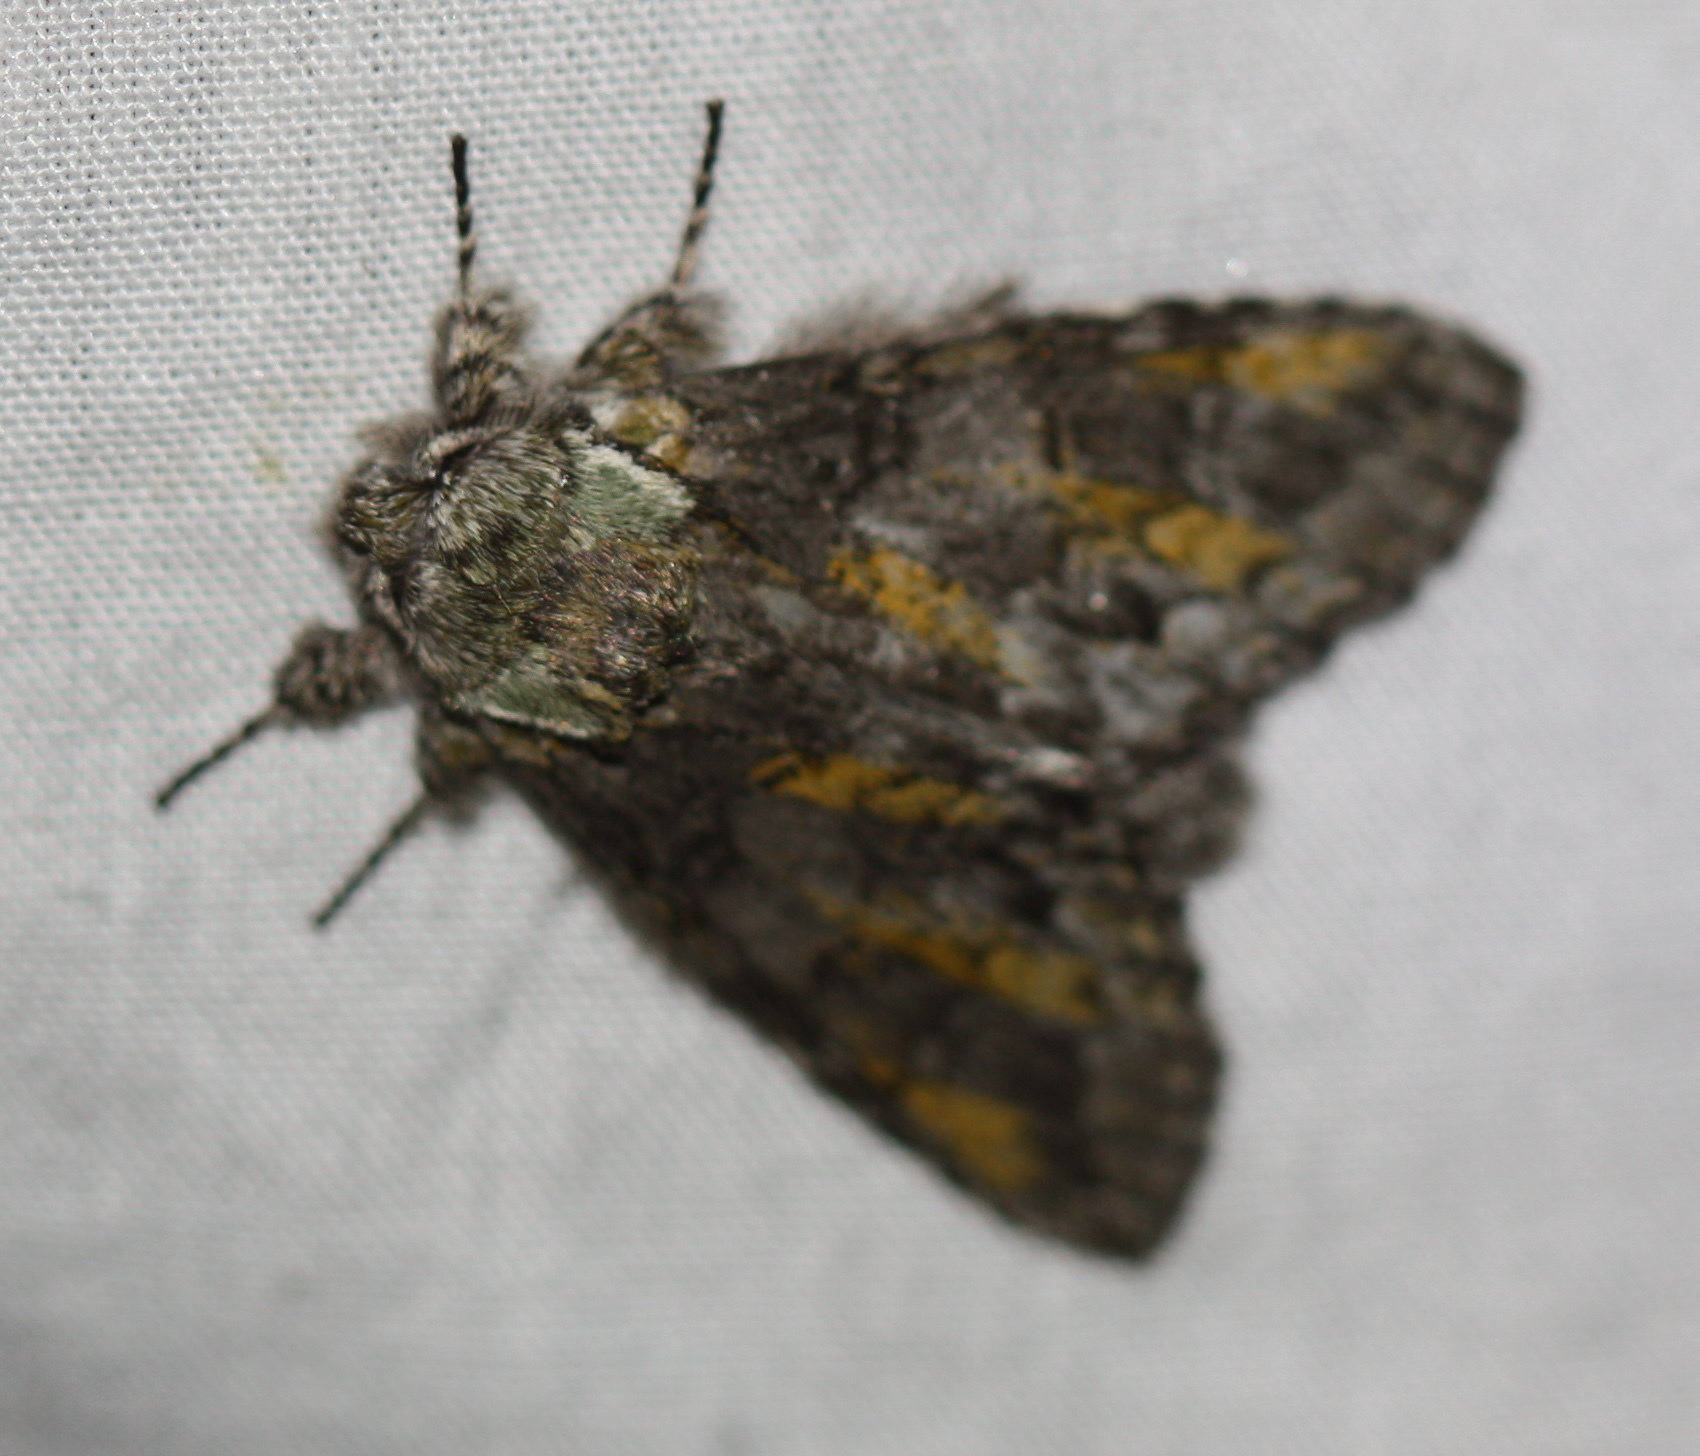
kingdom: Animalia
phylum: Arthropoda
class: Insecta
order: Lepidoptera
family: Notodontidae
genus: Macrurocampa
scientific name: Macrurocampa marthesia
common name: Mottled prominent
